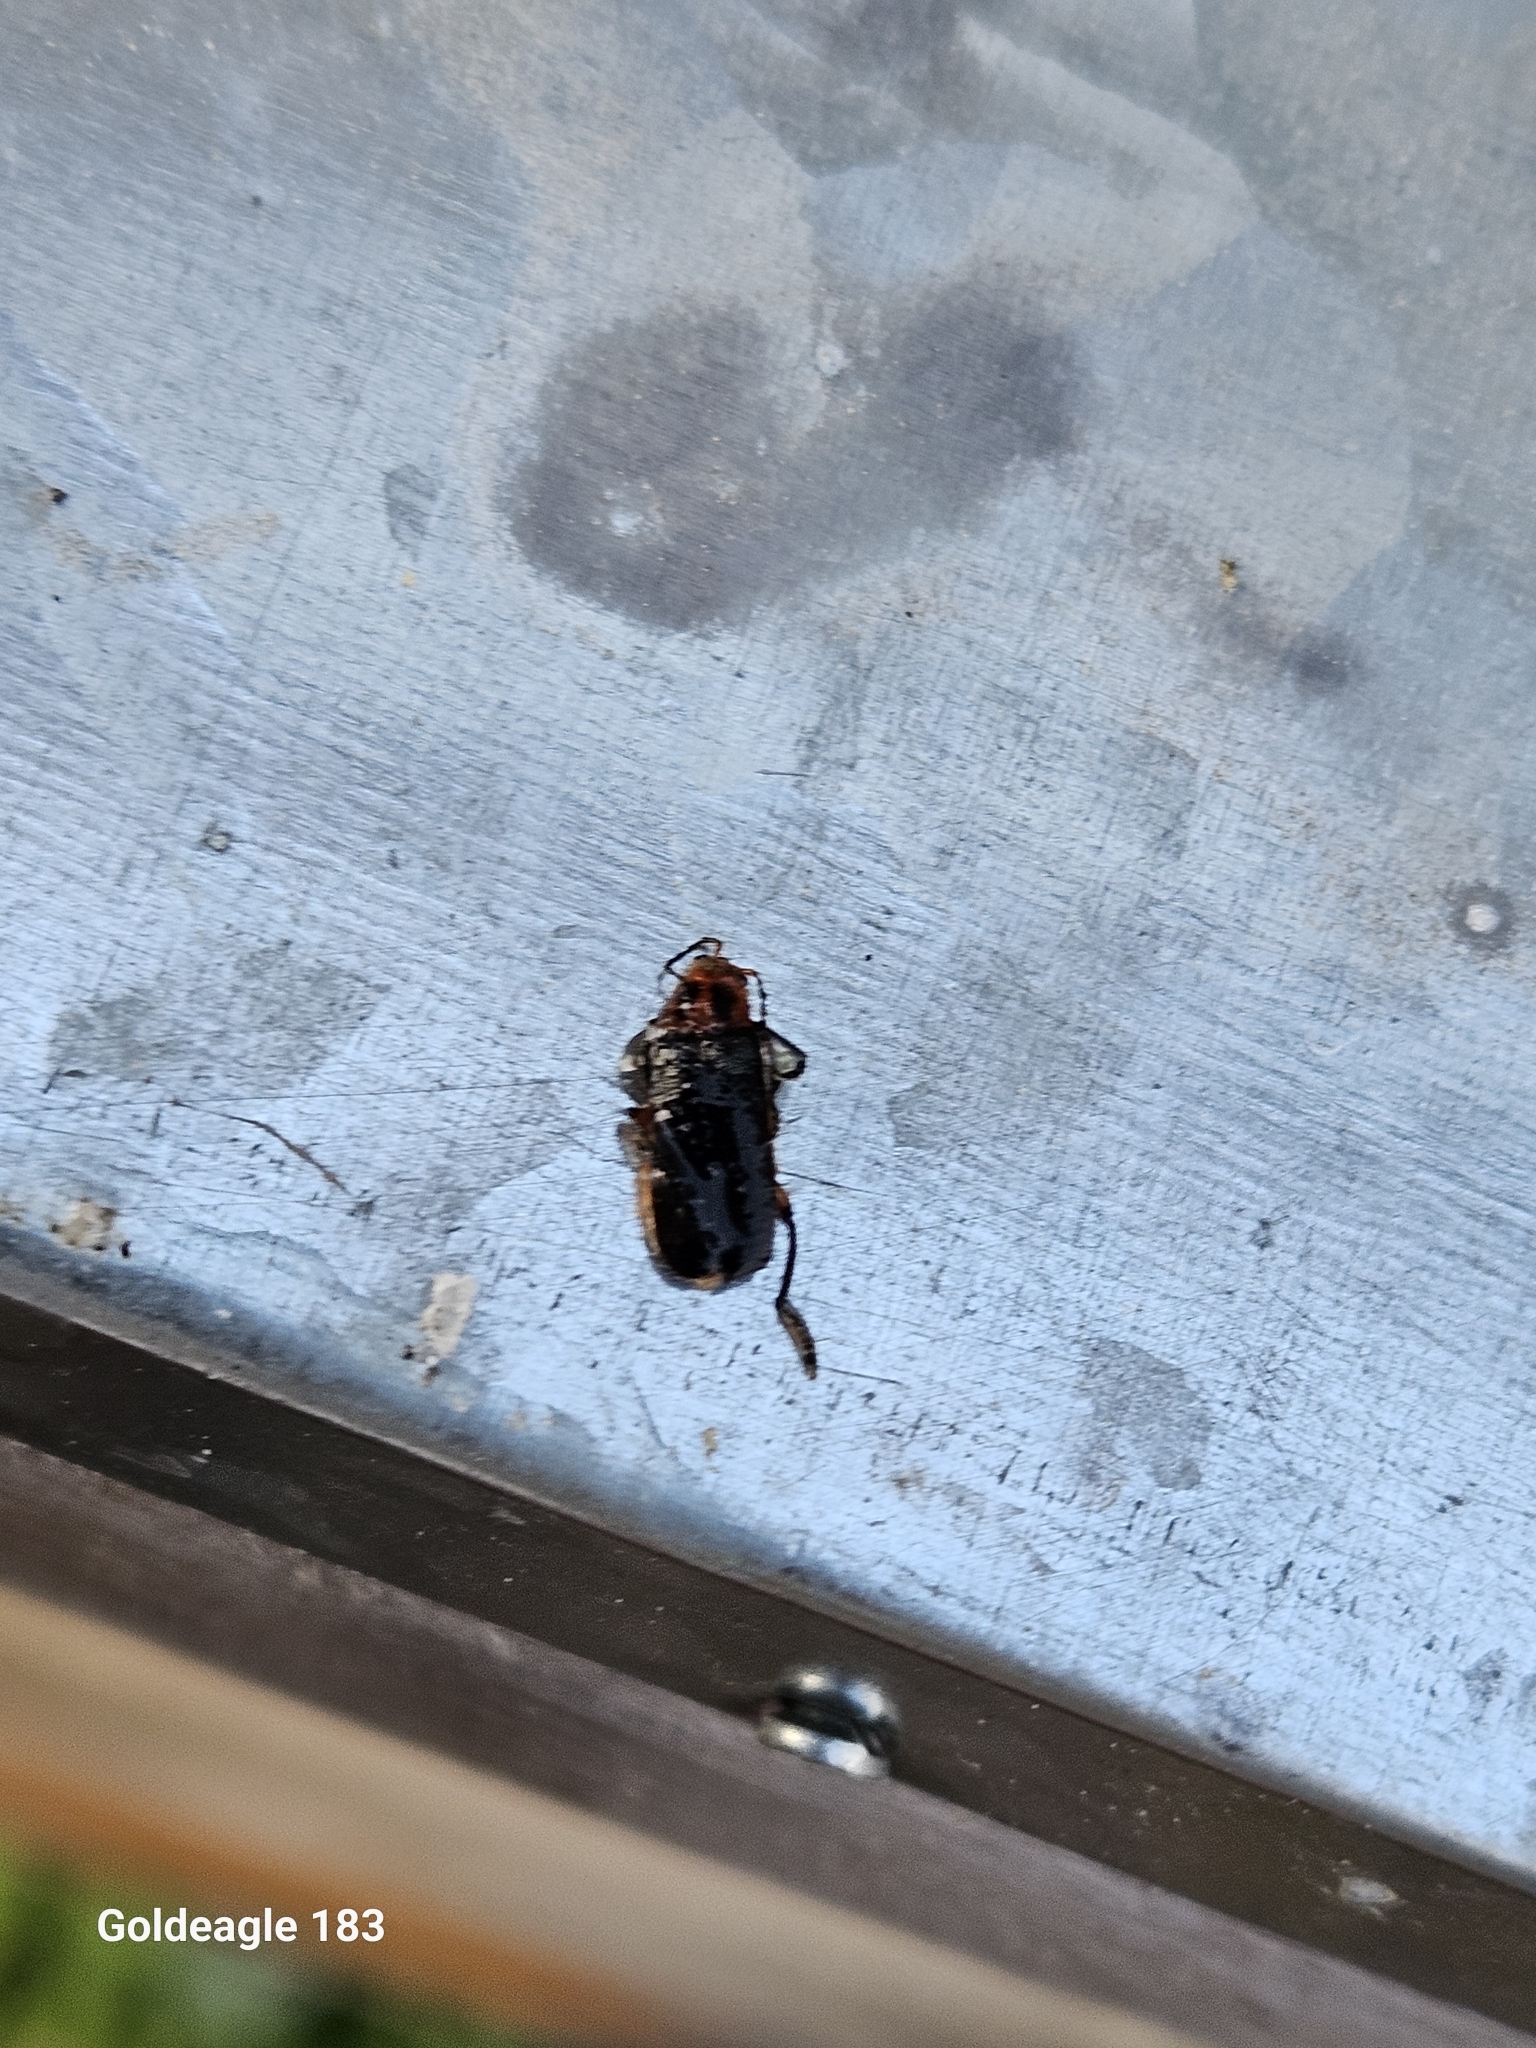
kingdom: Animalia
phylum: Arthropoda
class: Insecta
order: Coleoptera
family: Cantharidae
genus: Atalantycha
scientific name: Atalantycha bilineata
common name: Two-lined leatherwing
